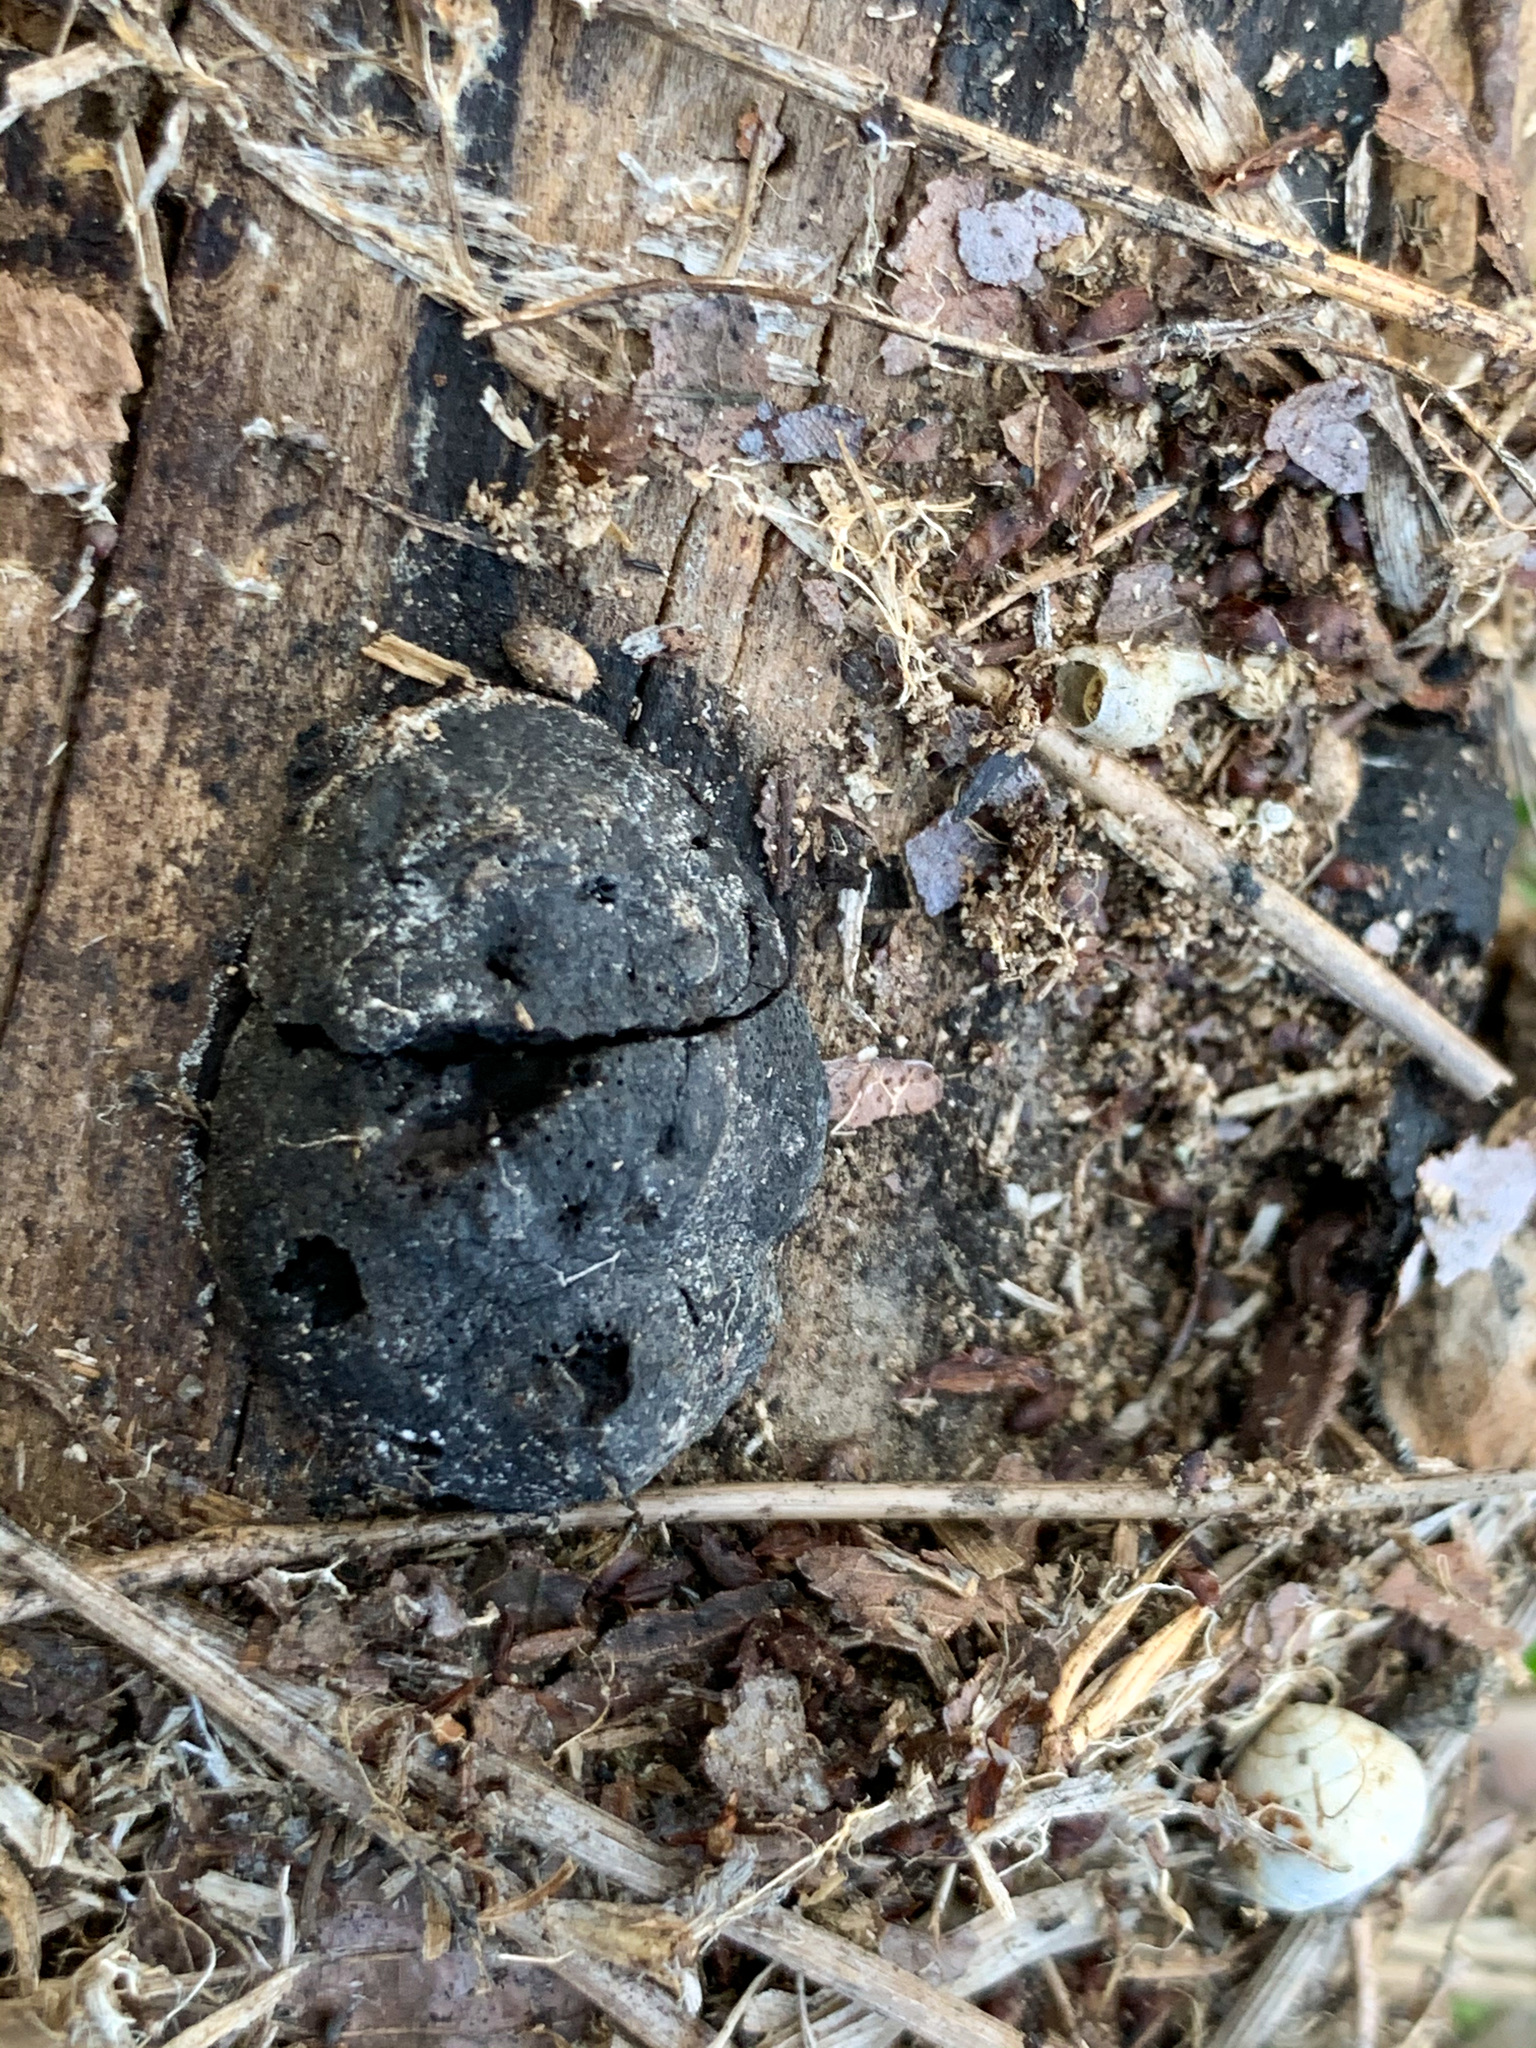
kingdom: Fungi
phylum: Ascomycota
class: Sordariomycetes
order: Xylariales
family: Hypoxylaceae
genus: Annulohypoxylon
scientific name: Annulohypoxylon thouarsianum
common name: Cramp balls
